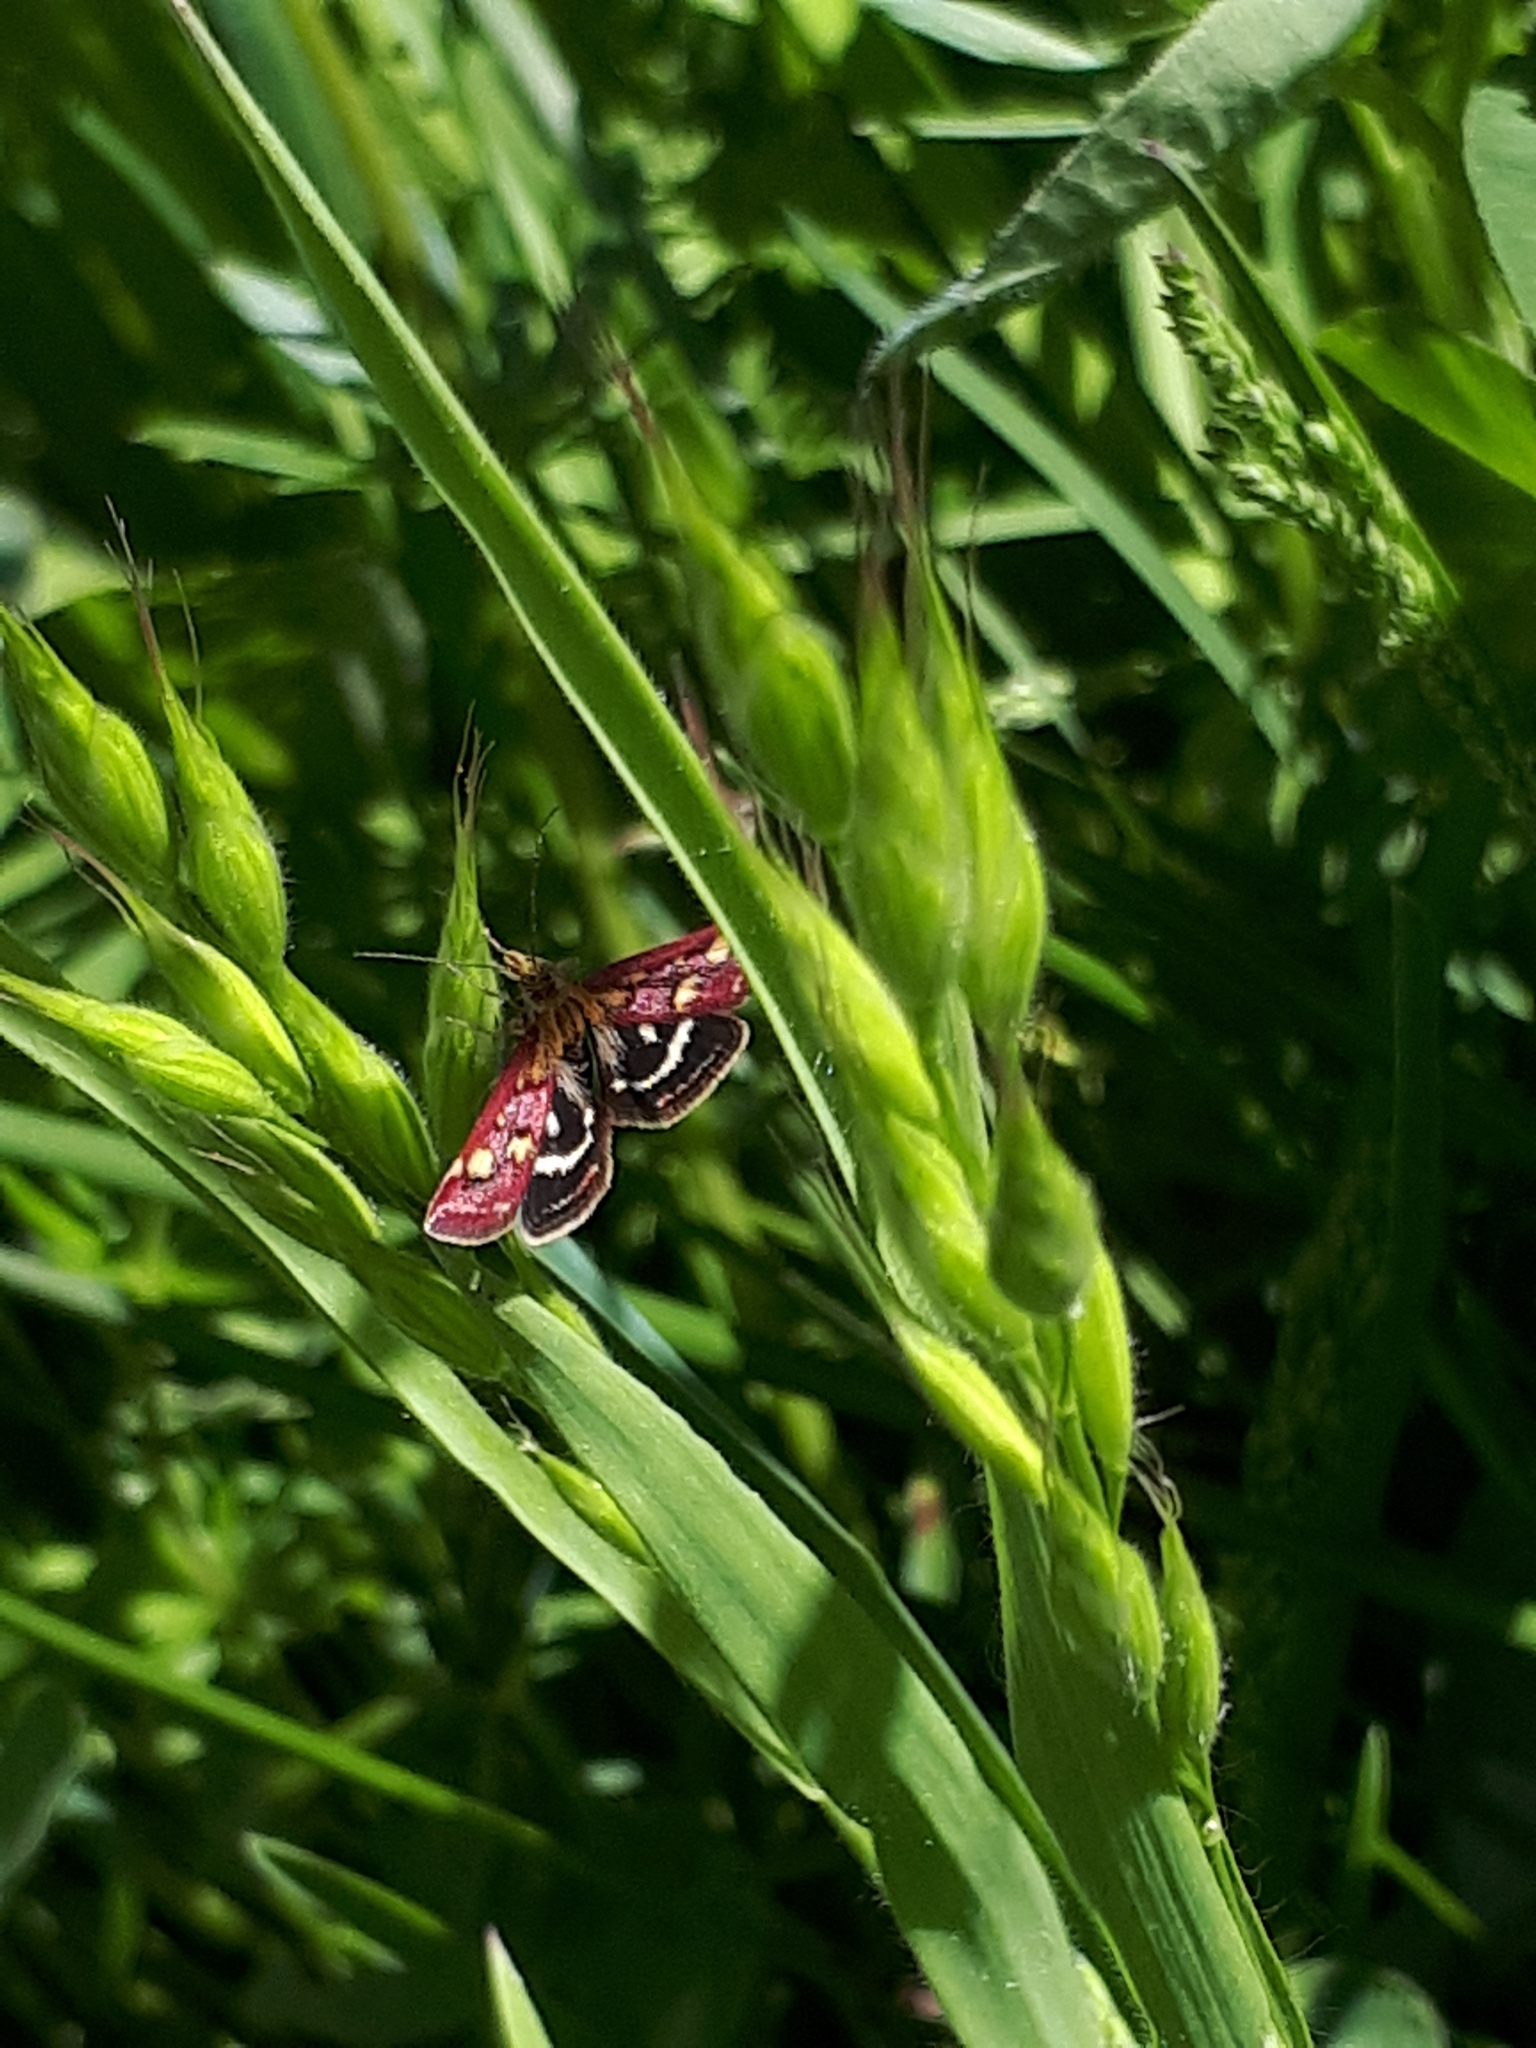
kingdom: Animalia
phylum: Arthropoda
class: Insecta
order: Lepidoptera
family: Crambidae
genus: Pyrausta
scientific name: Pyrausta ostrinalis
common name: Scarce purple & gold
